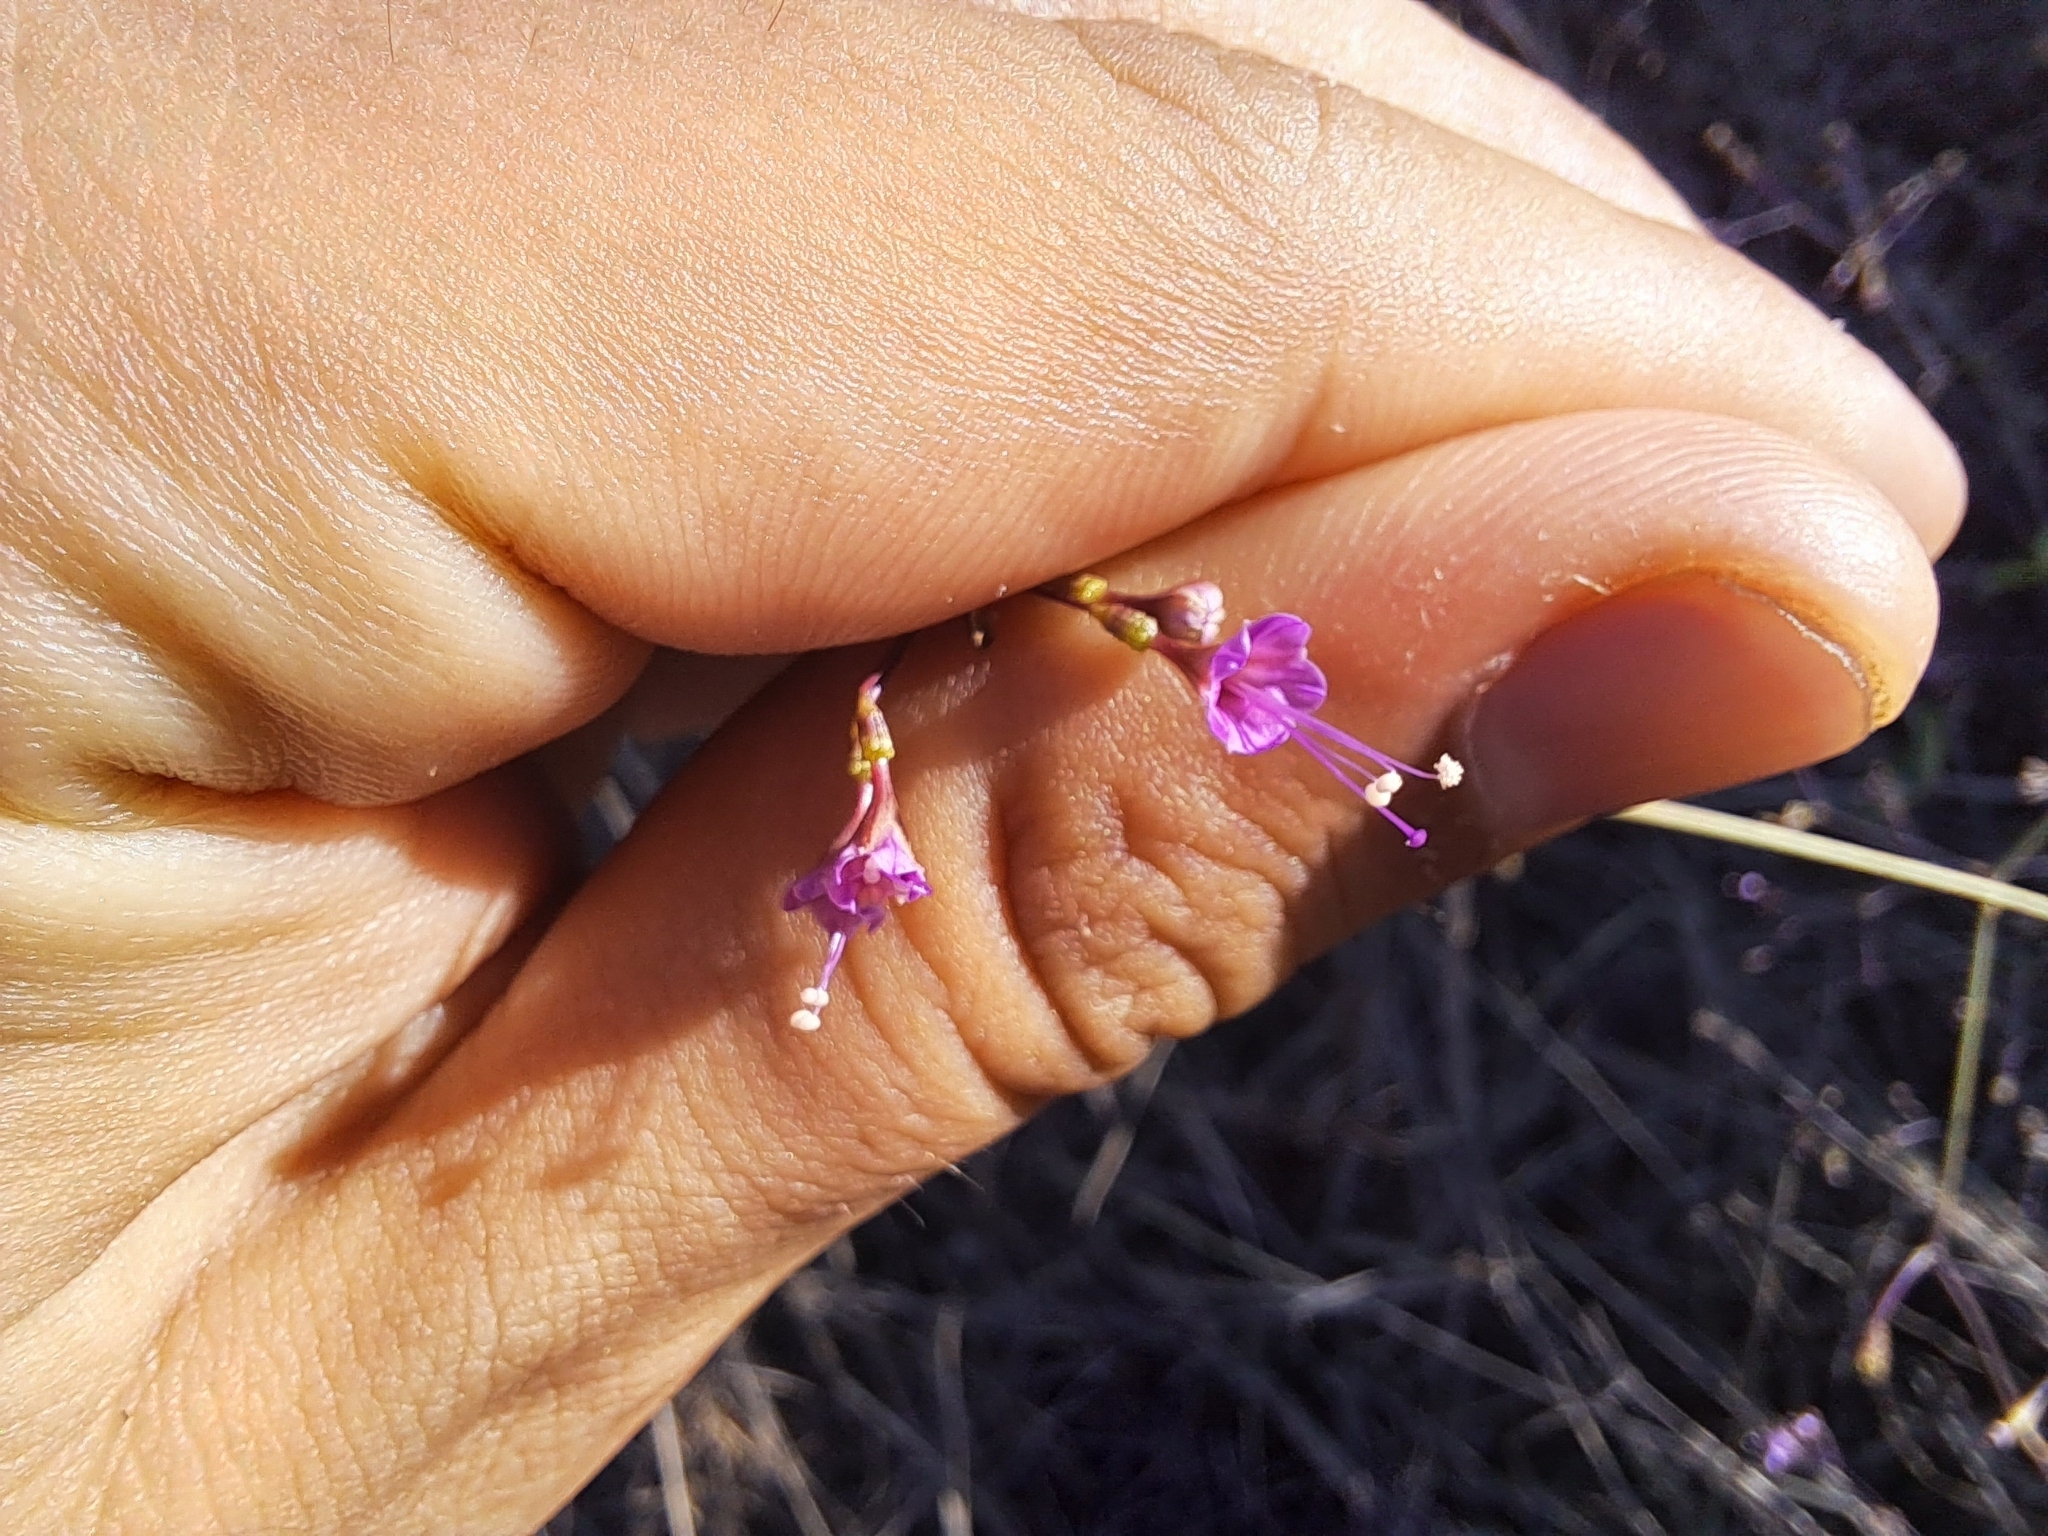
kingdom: Plantae
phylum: Tracheophyta
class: Magnoliopsida
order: Caryophyllales
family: Nyctaginaceae
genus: Commicarpus
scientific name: Commicarpus tuberosus
